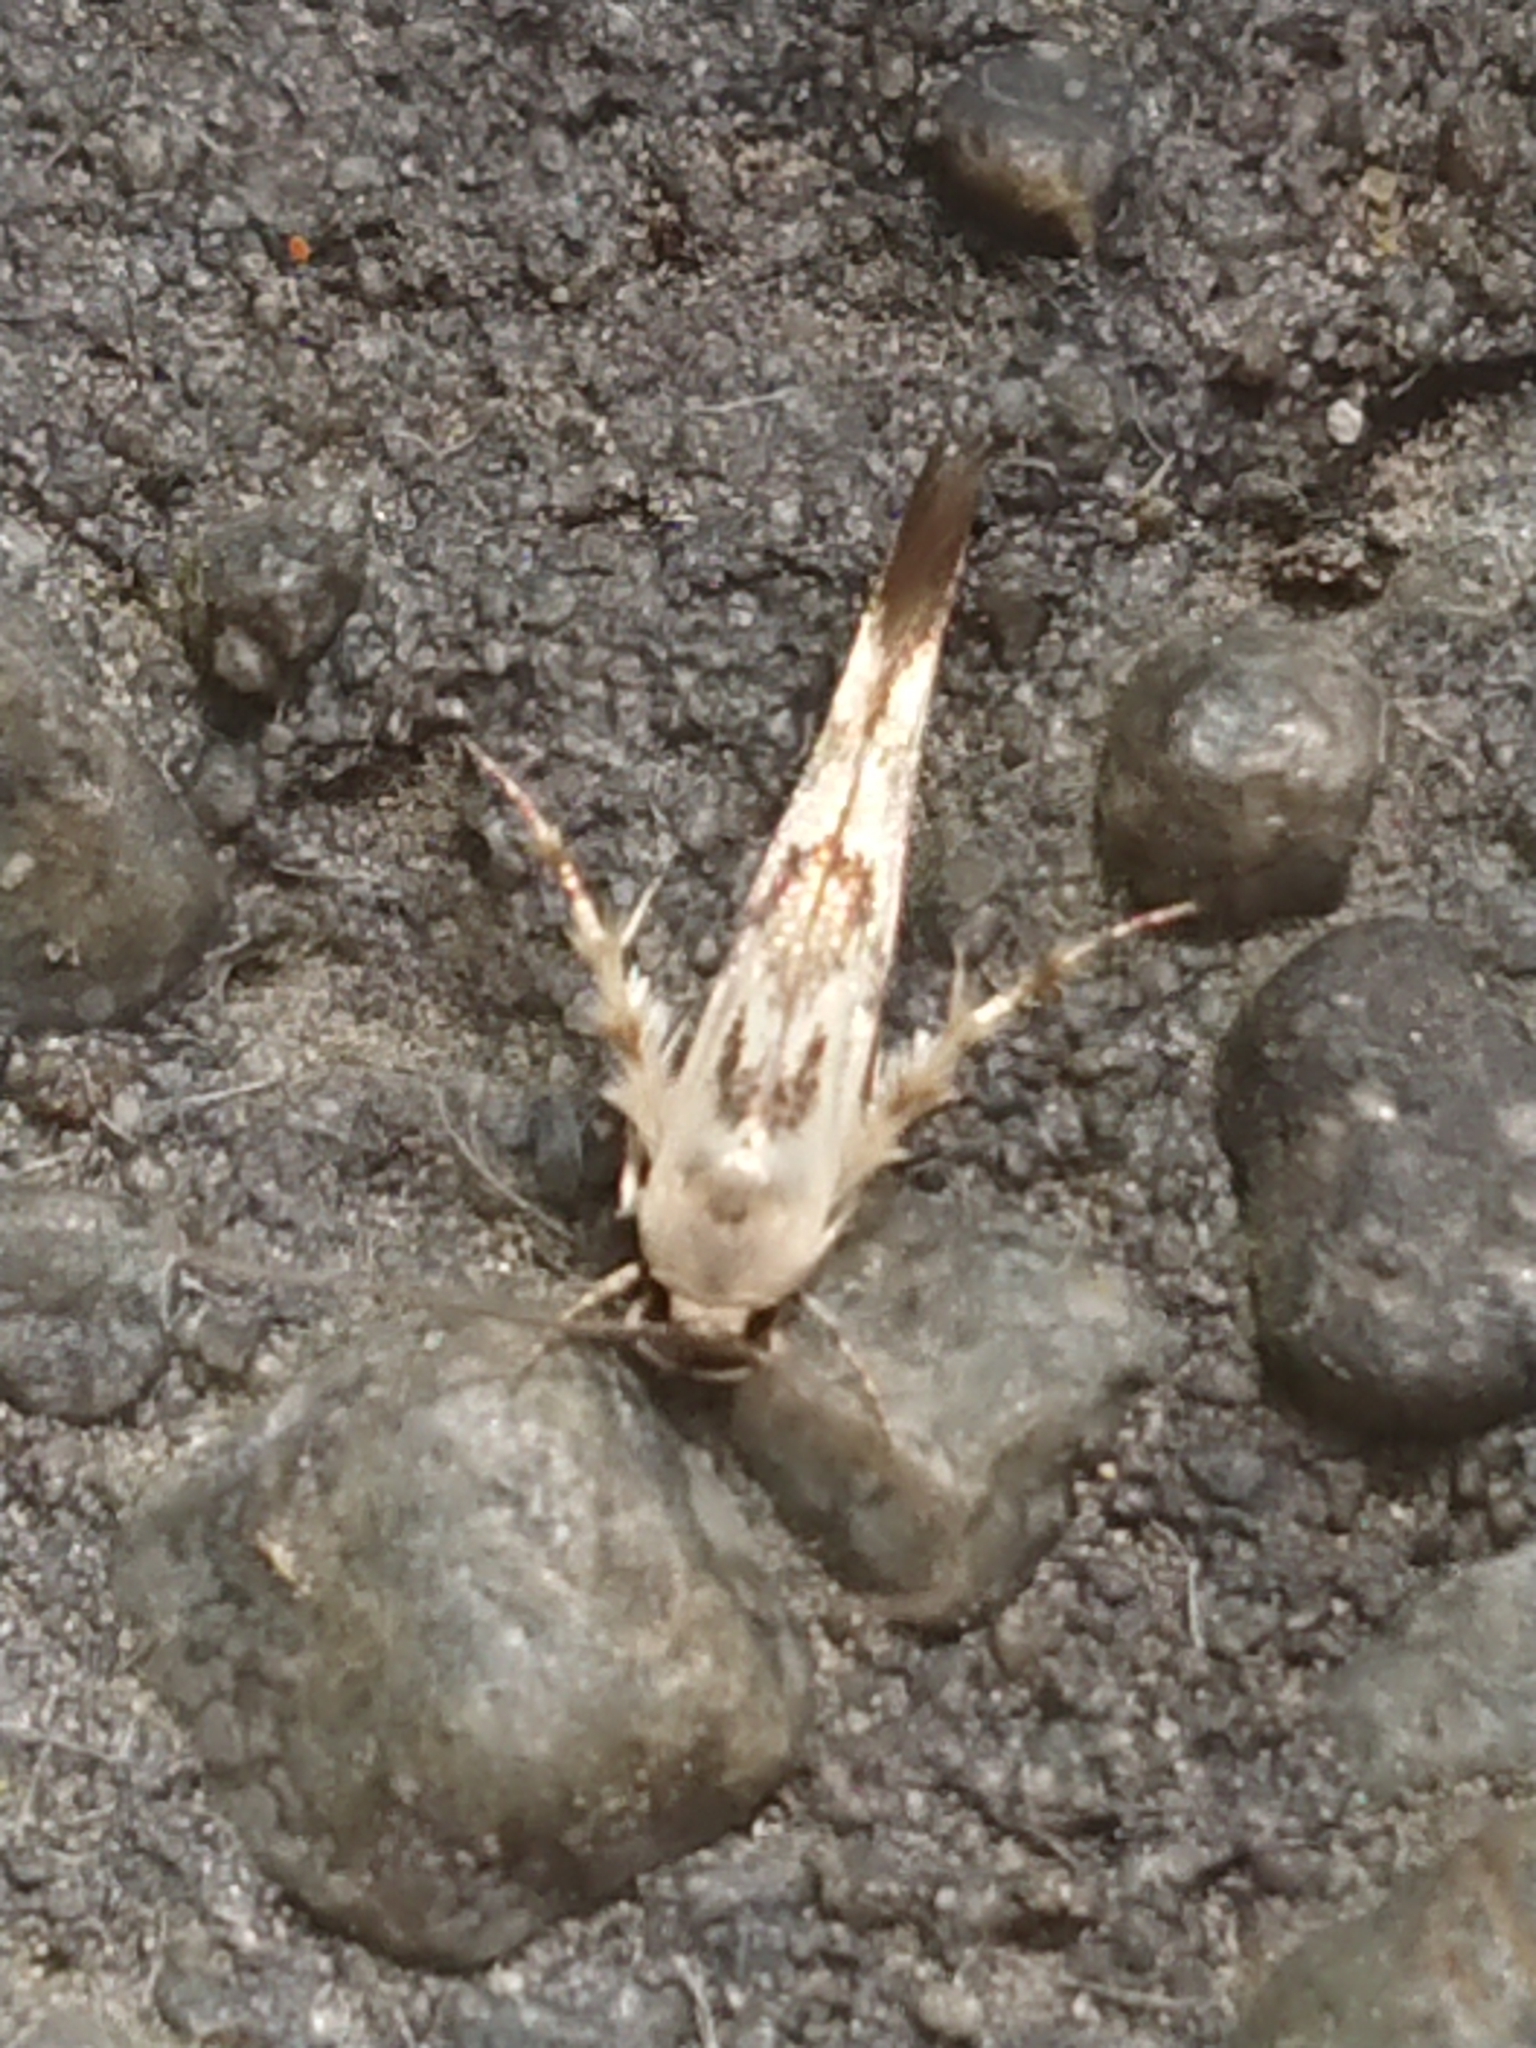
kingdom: Animalia
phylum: Arthropoda
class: Insecta
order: Lepidoptera
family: Stathmopodidae
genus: Stathmopoda
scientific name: Stathmopoda melanochra
